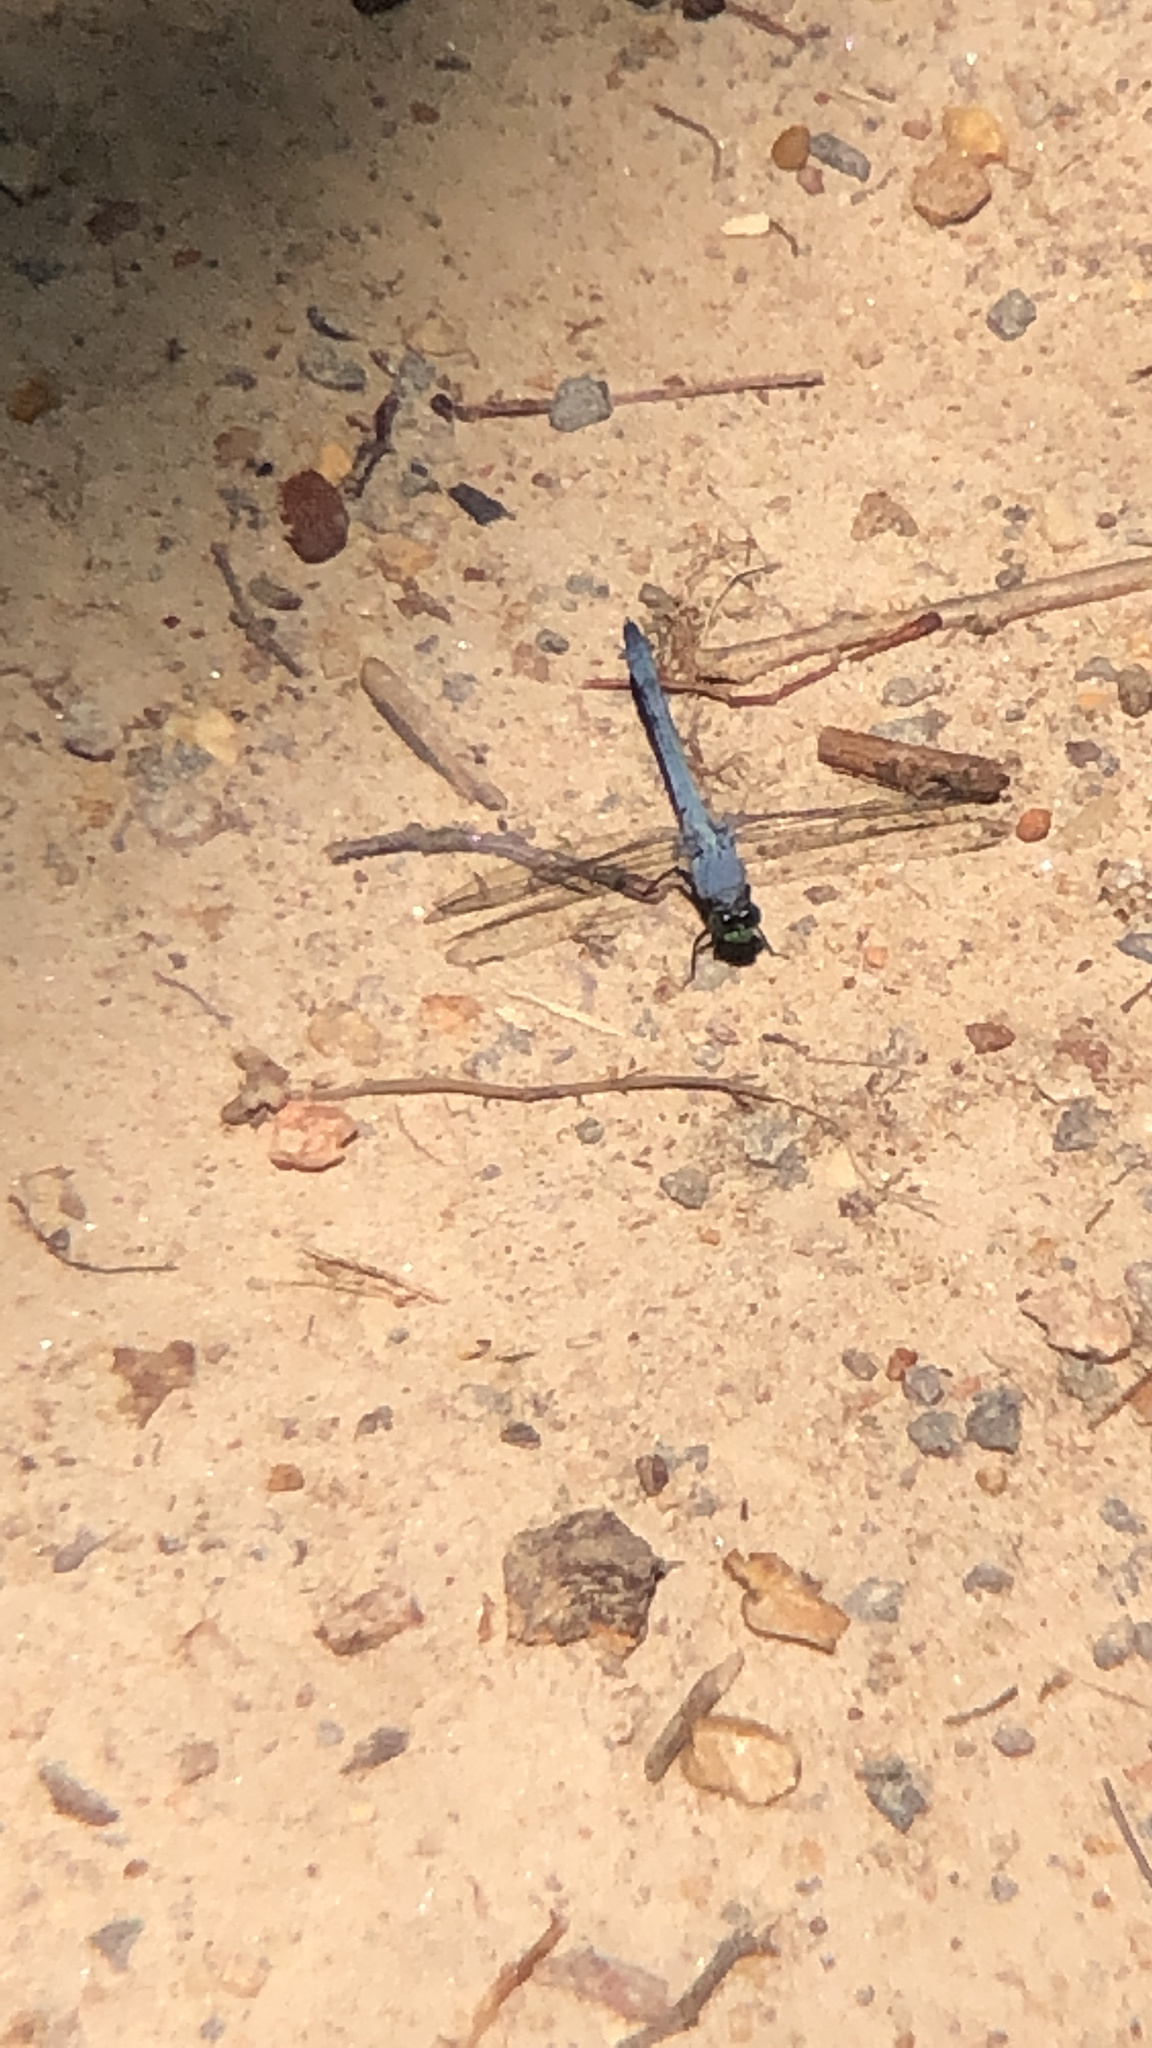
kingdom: Animalia
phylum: Arthropoda
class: Insecta
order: Odonata
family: Libellulidae
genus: Erythemis
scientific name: Erythemis simplicicollis
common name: Eastern pondhawk
